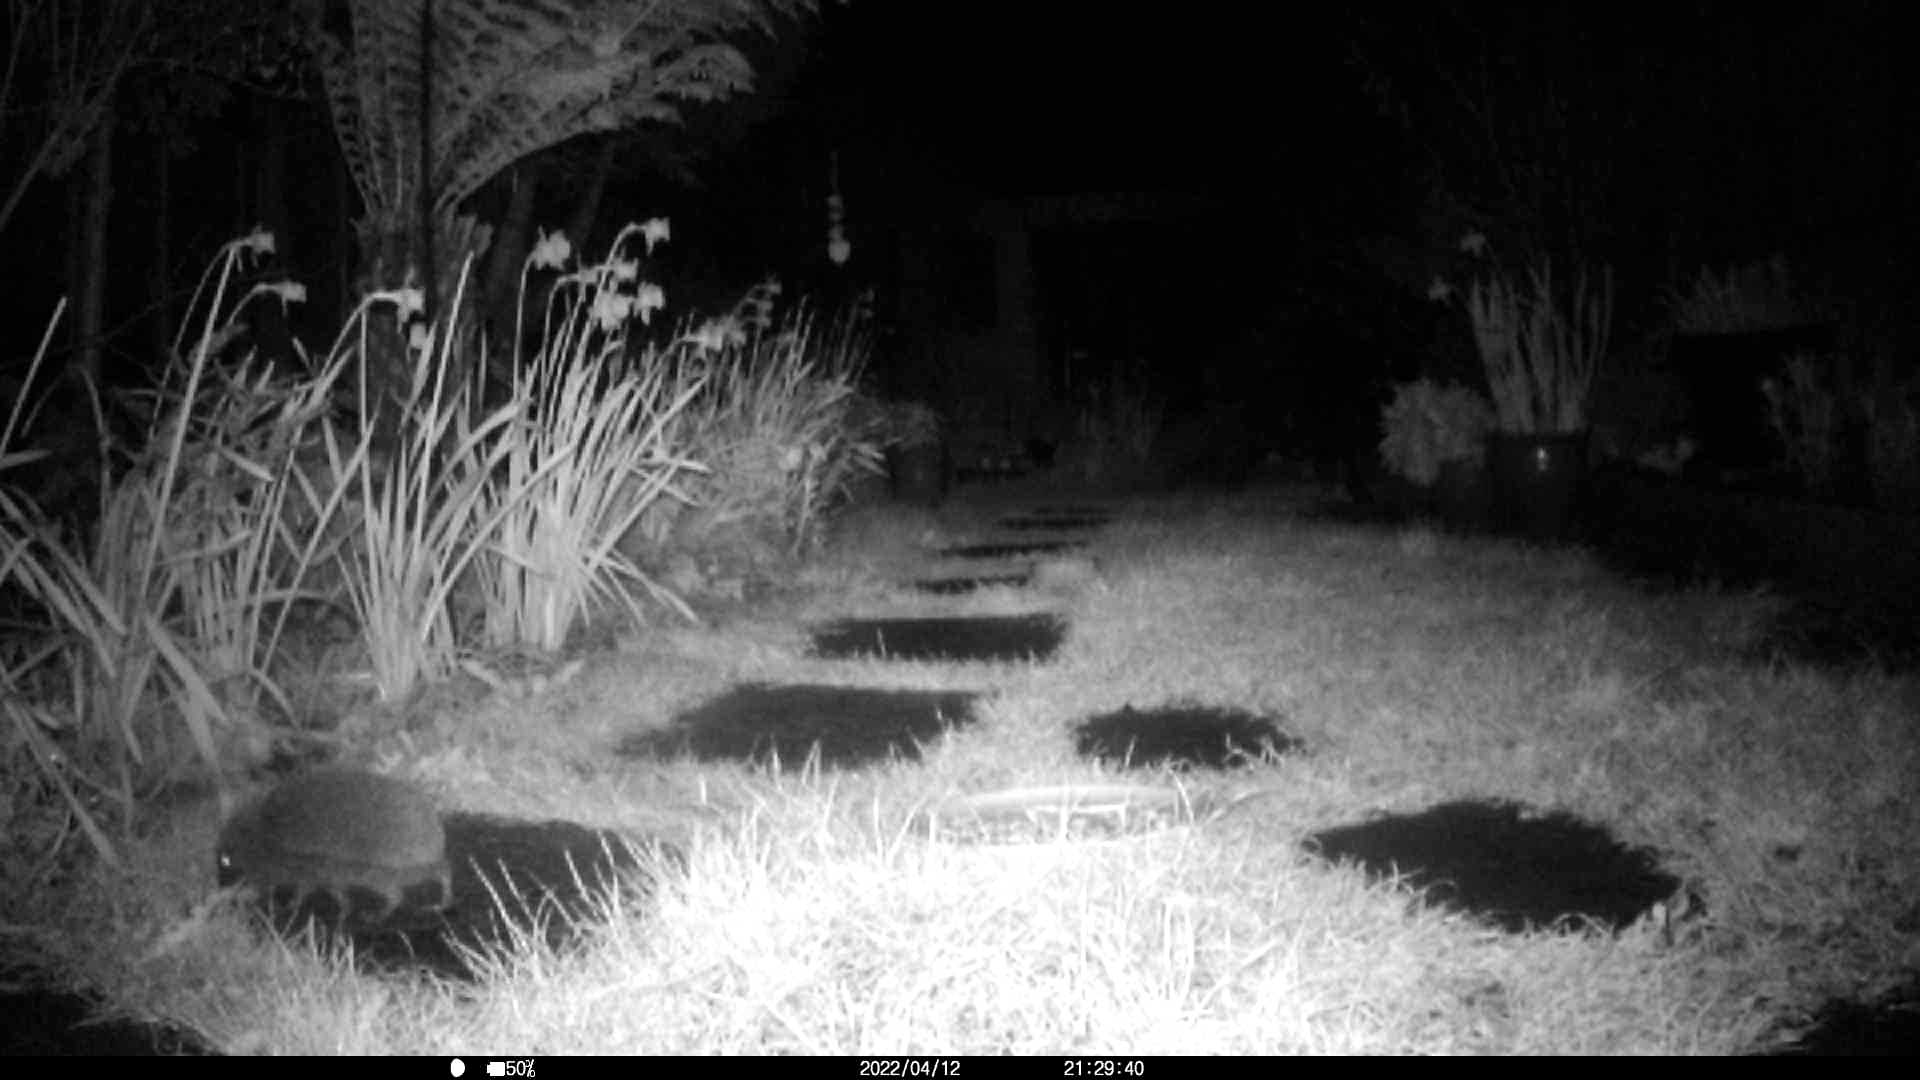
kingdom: Animalia
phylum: Chordata
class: Mammalia
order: Erinaceomorpha
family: Erinaceidae
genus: Erinaceus
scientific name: Erinaceus europaeus
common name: West european hedgehog
